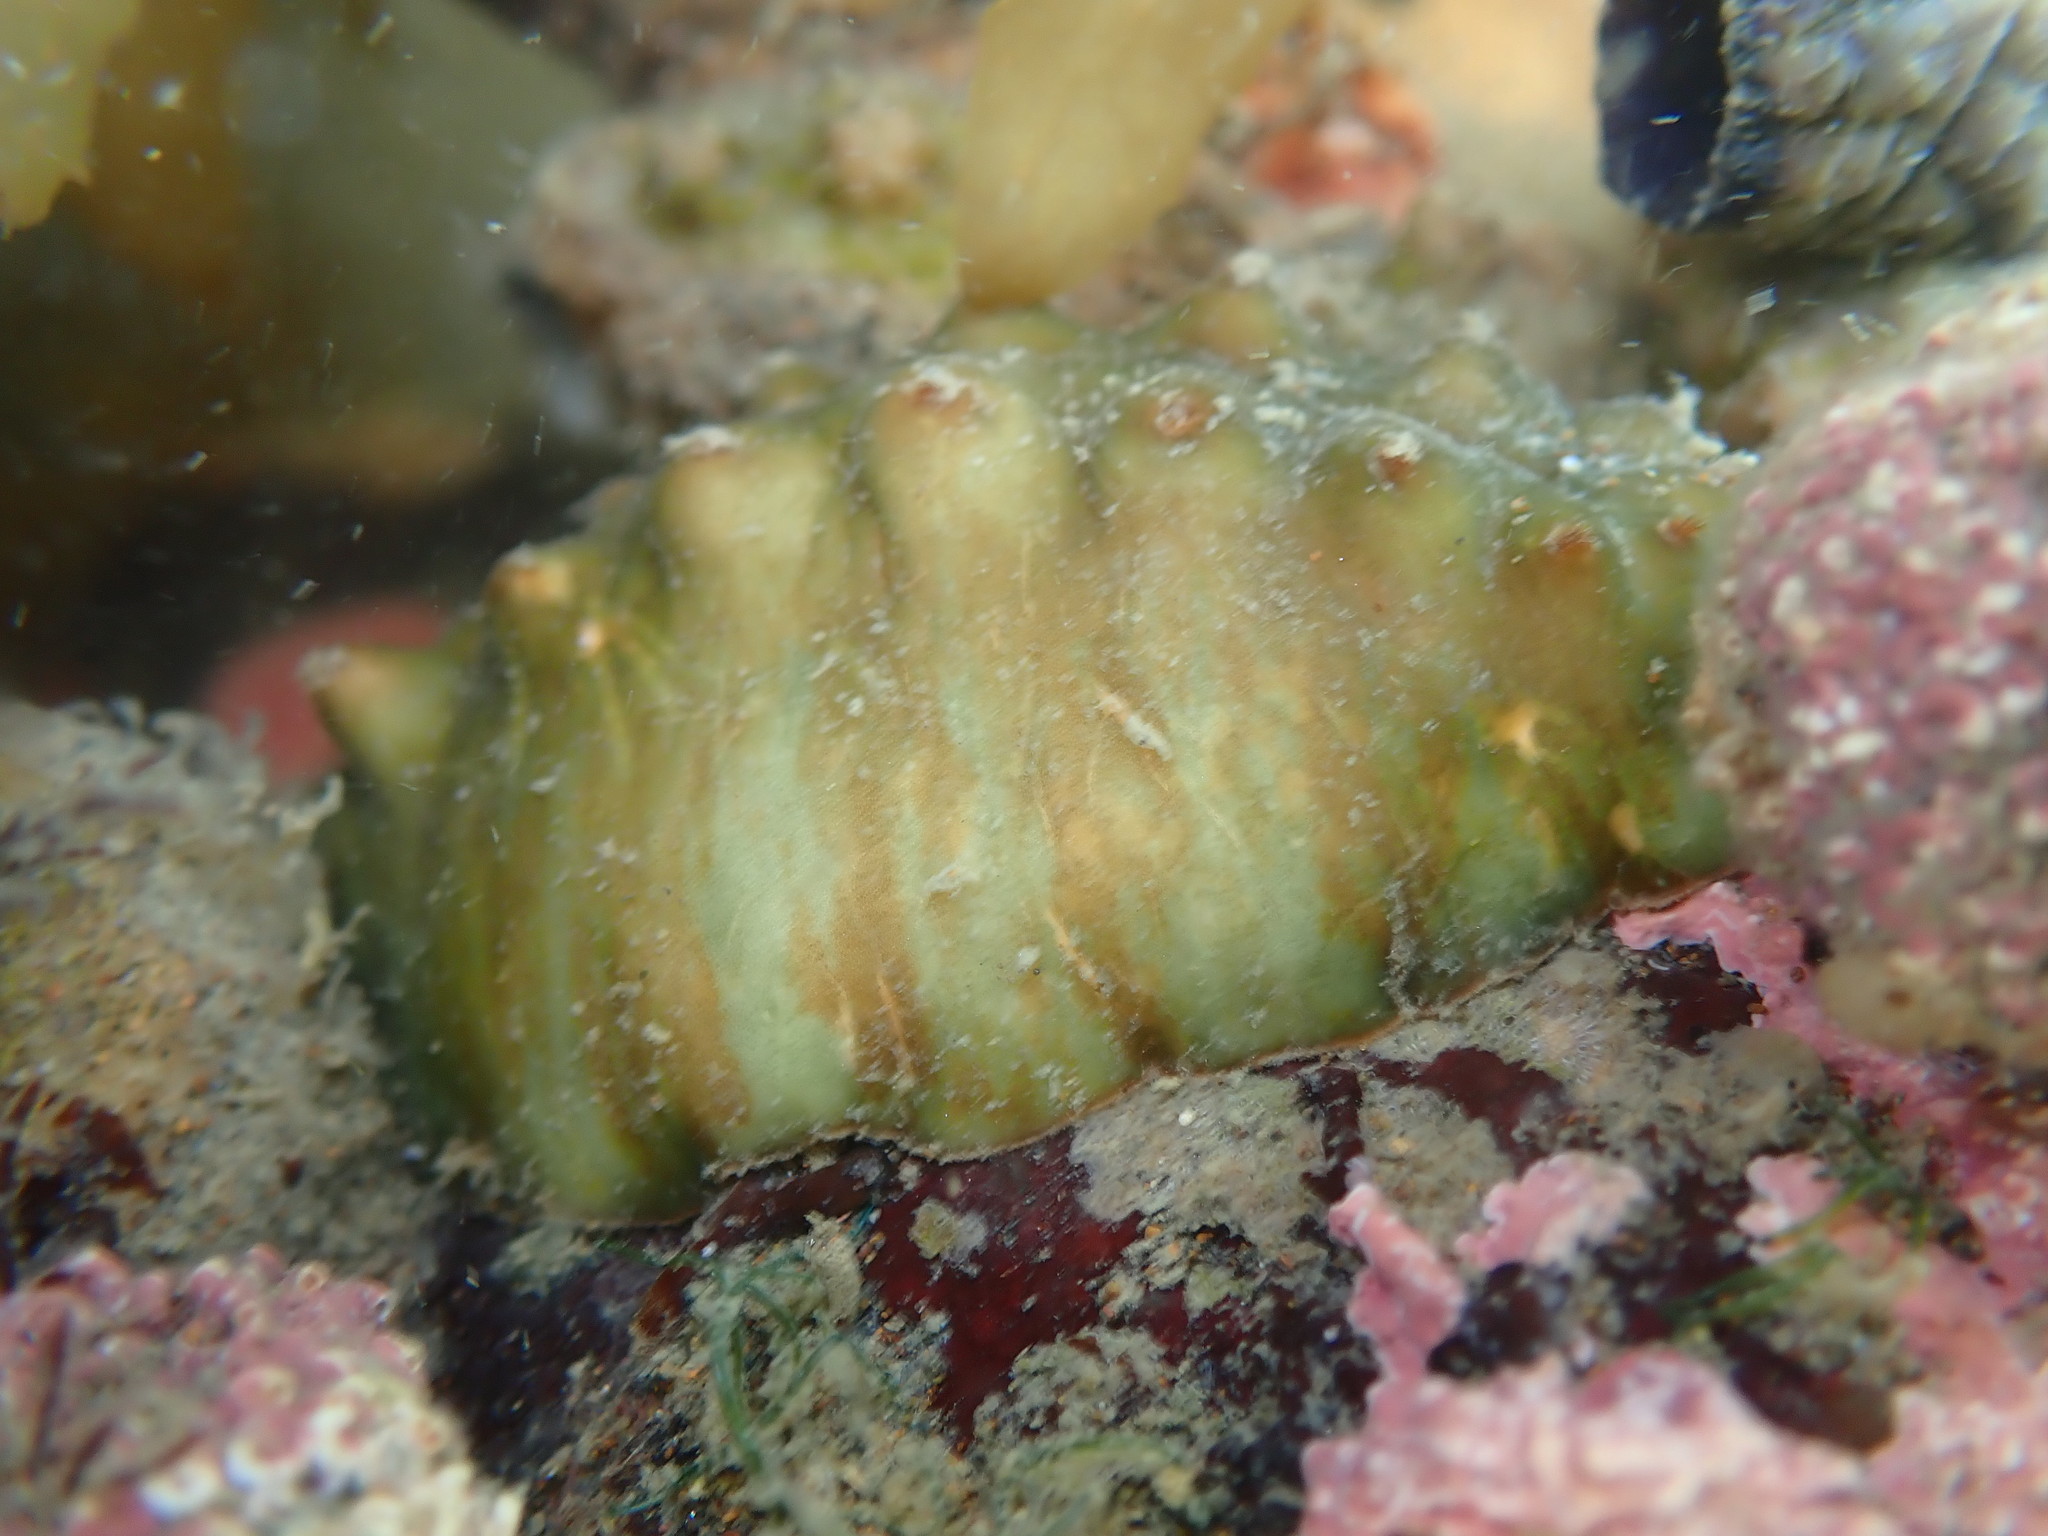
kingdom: Animalia
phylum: Mollusca
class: Polyplacophora
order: Chitonida
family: Acanthochitonidae
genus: Cryptoconchus
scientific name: Cryptoconchus porosus
